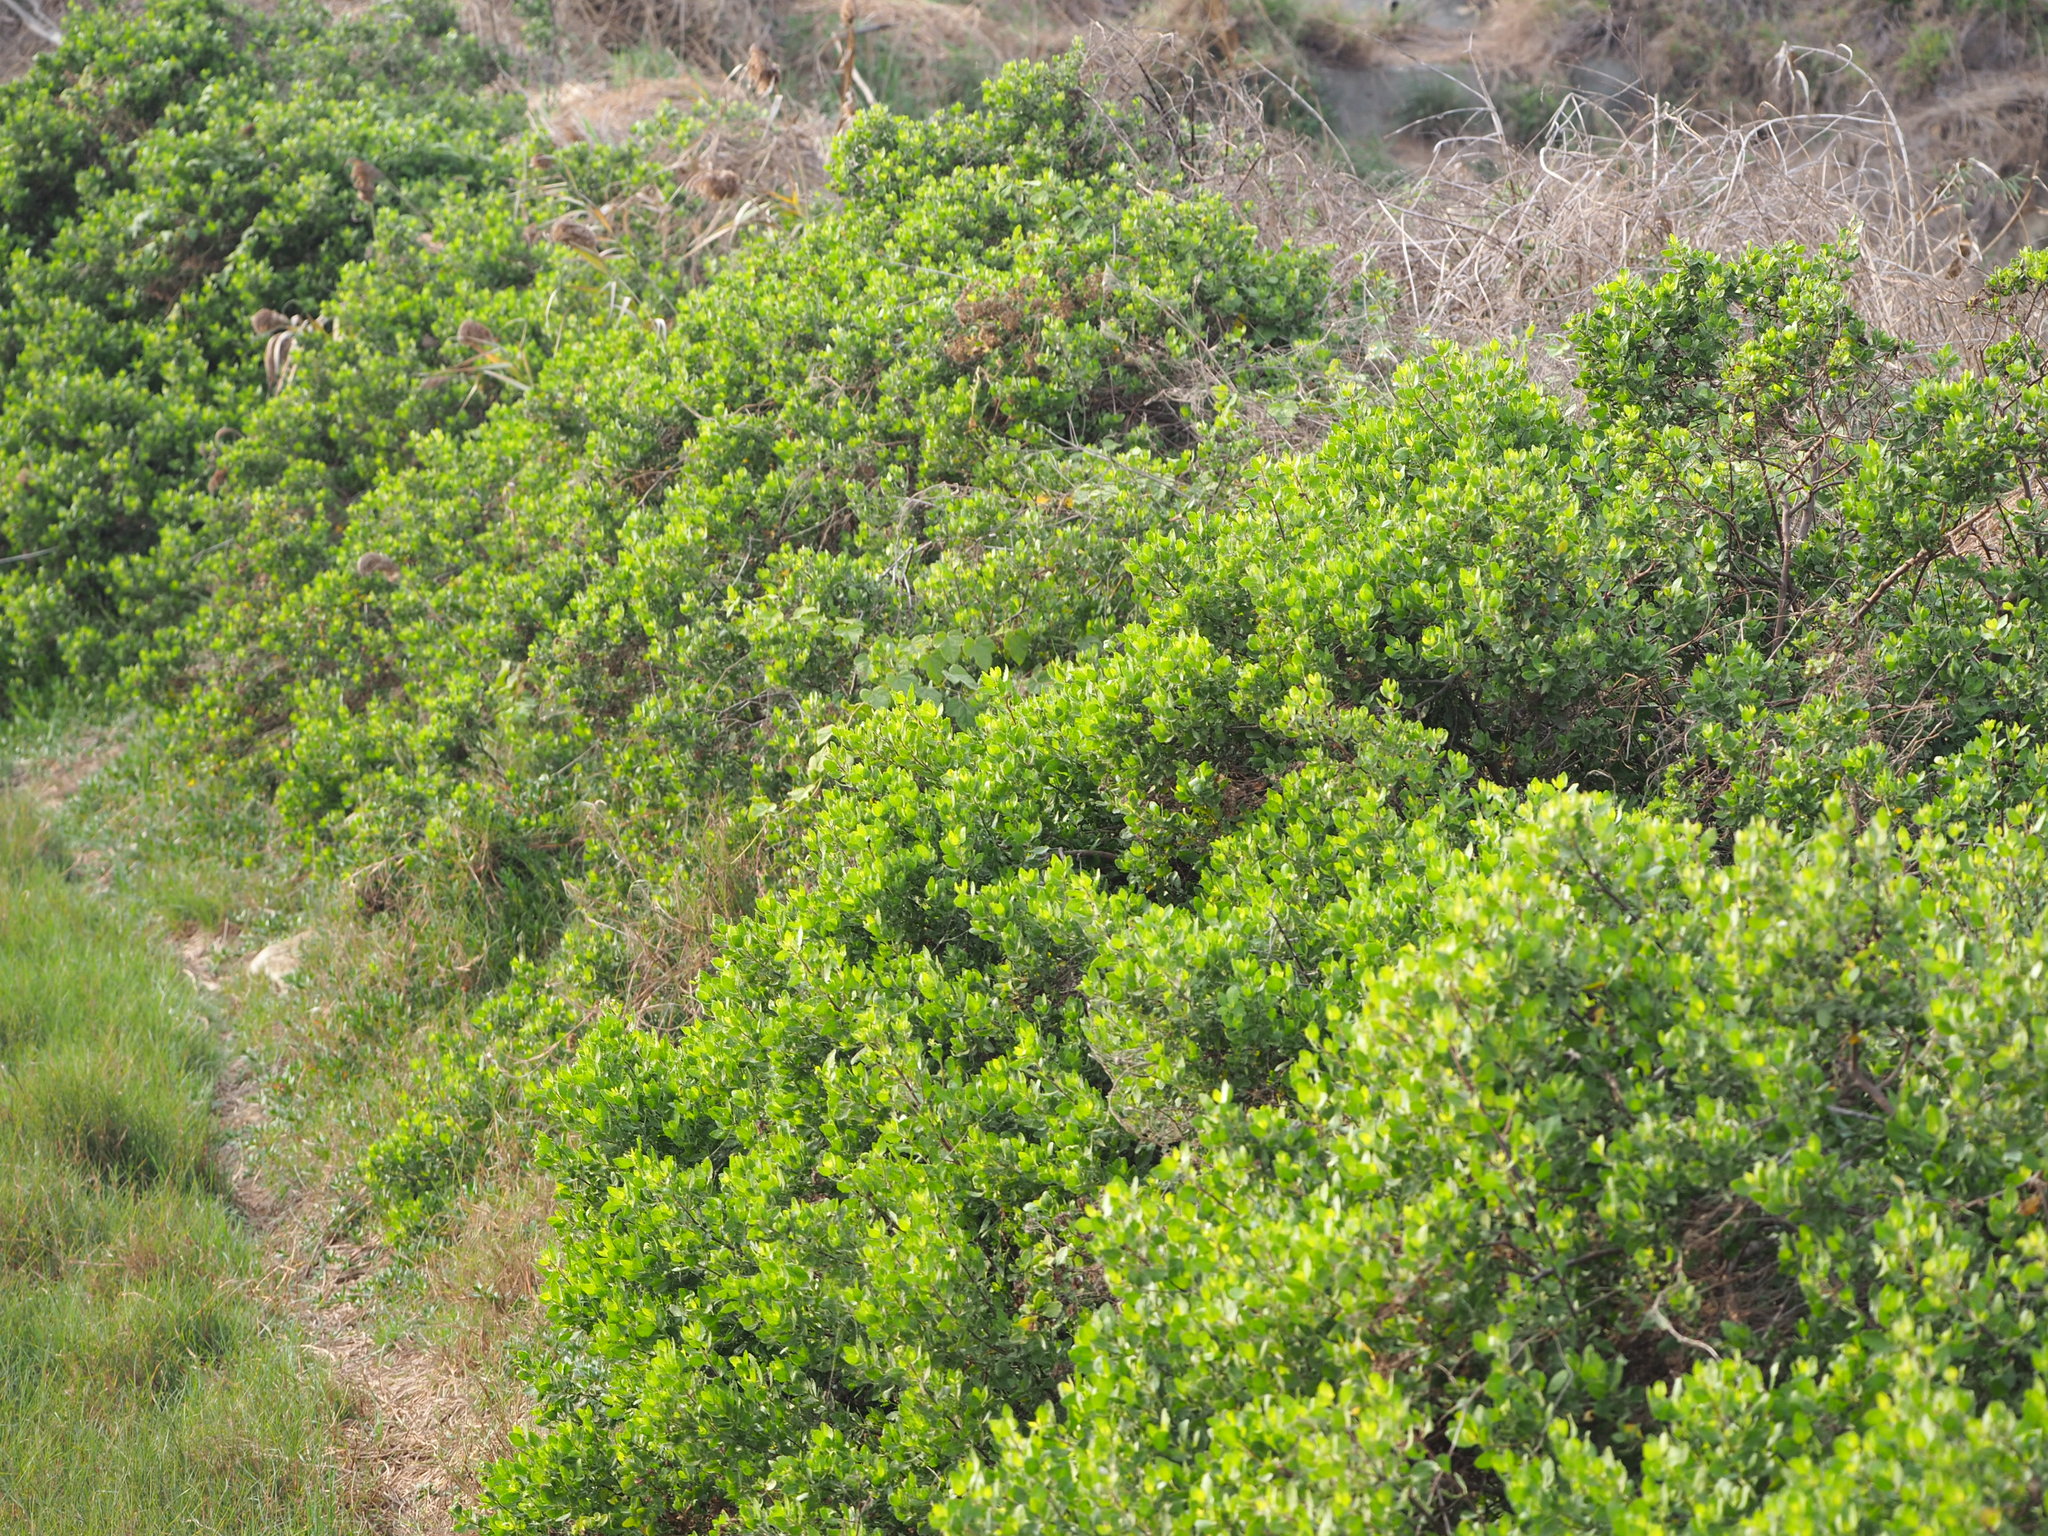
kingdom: Plantae
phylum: Tracheophyta
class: Magnoliopsida
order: Asterales
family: Asteraceae
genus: Pluchea
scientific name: Pluchea indica
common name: Indian fleabane
